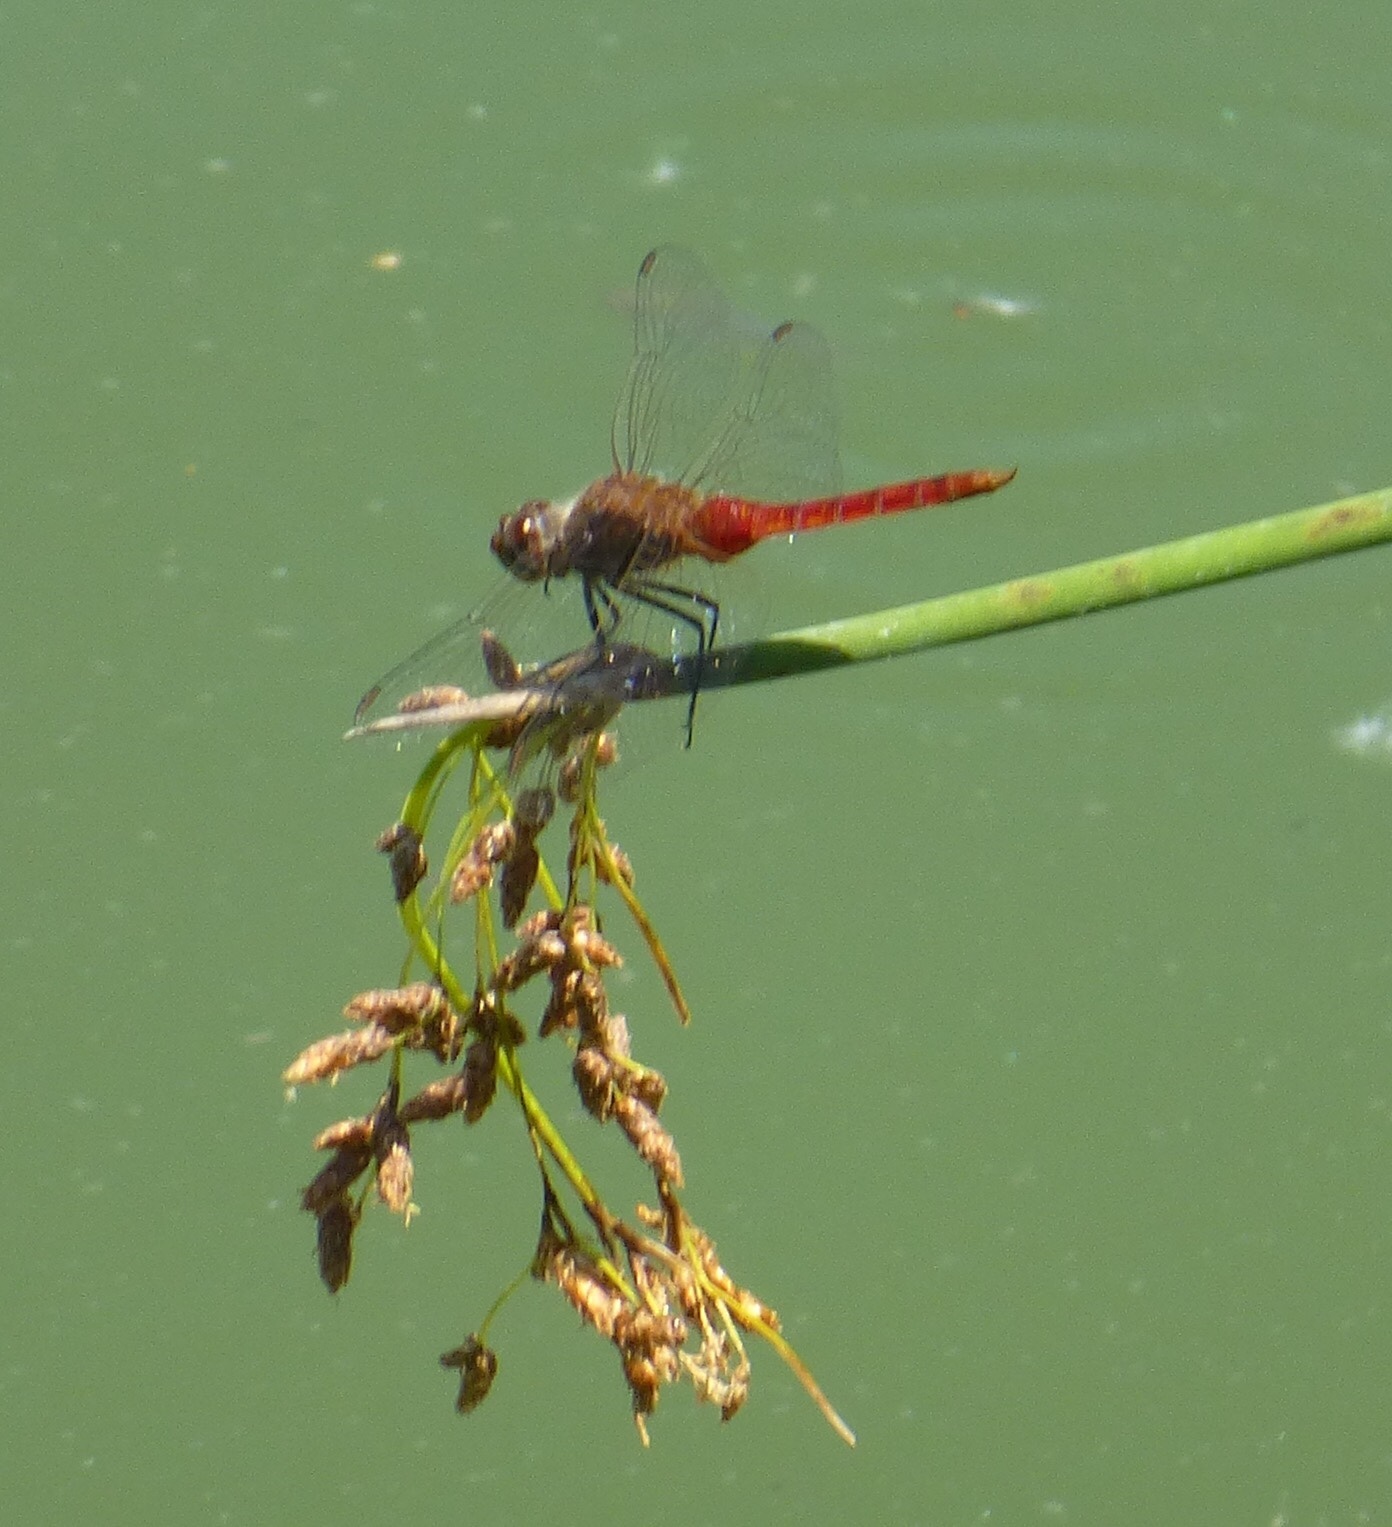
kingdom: Animalia
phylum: Arthropoda
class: Insecta
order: Odonata
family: Libellulidae
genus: Brachymesia
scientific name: Brachymesia furcata
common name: Red-taled pennant
